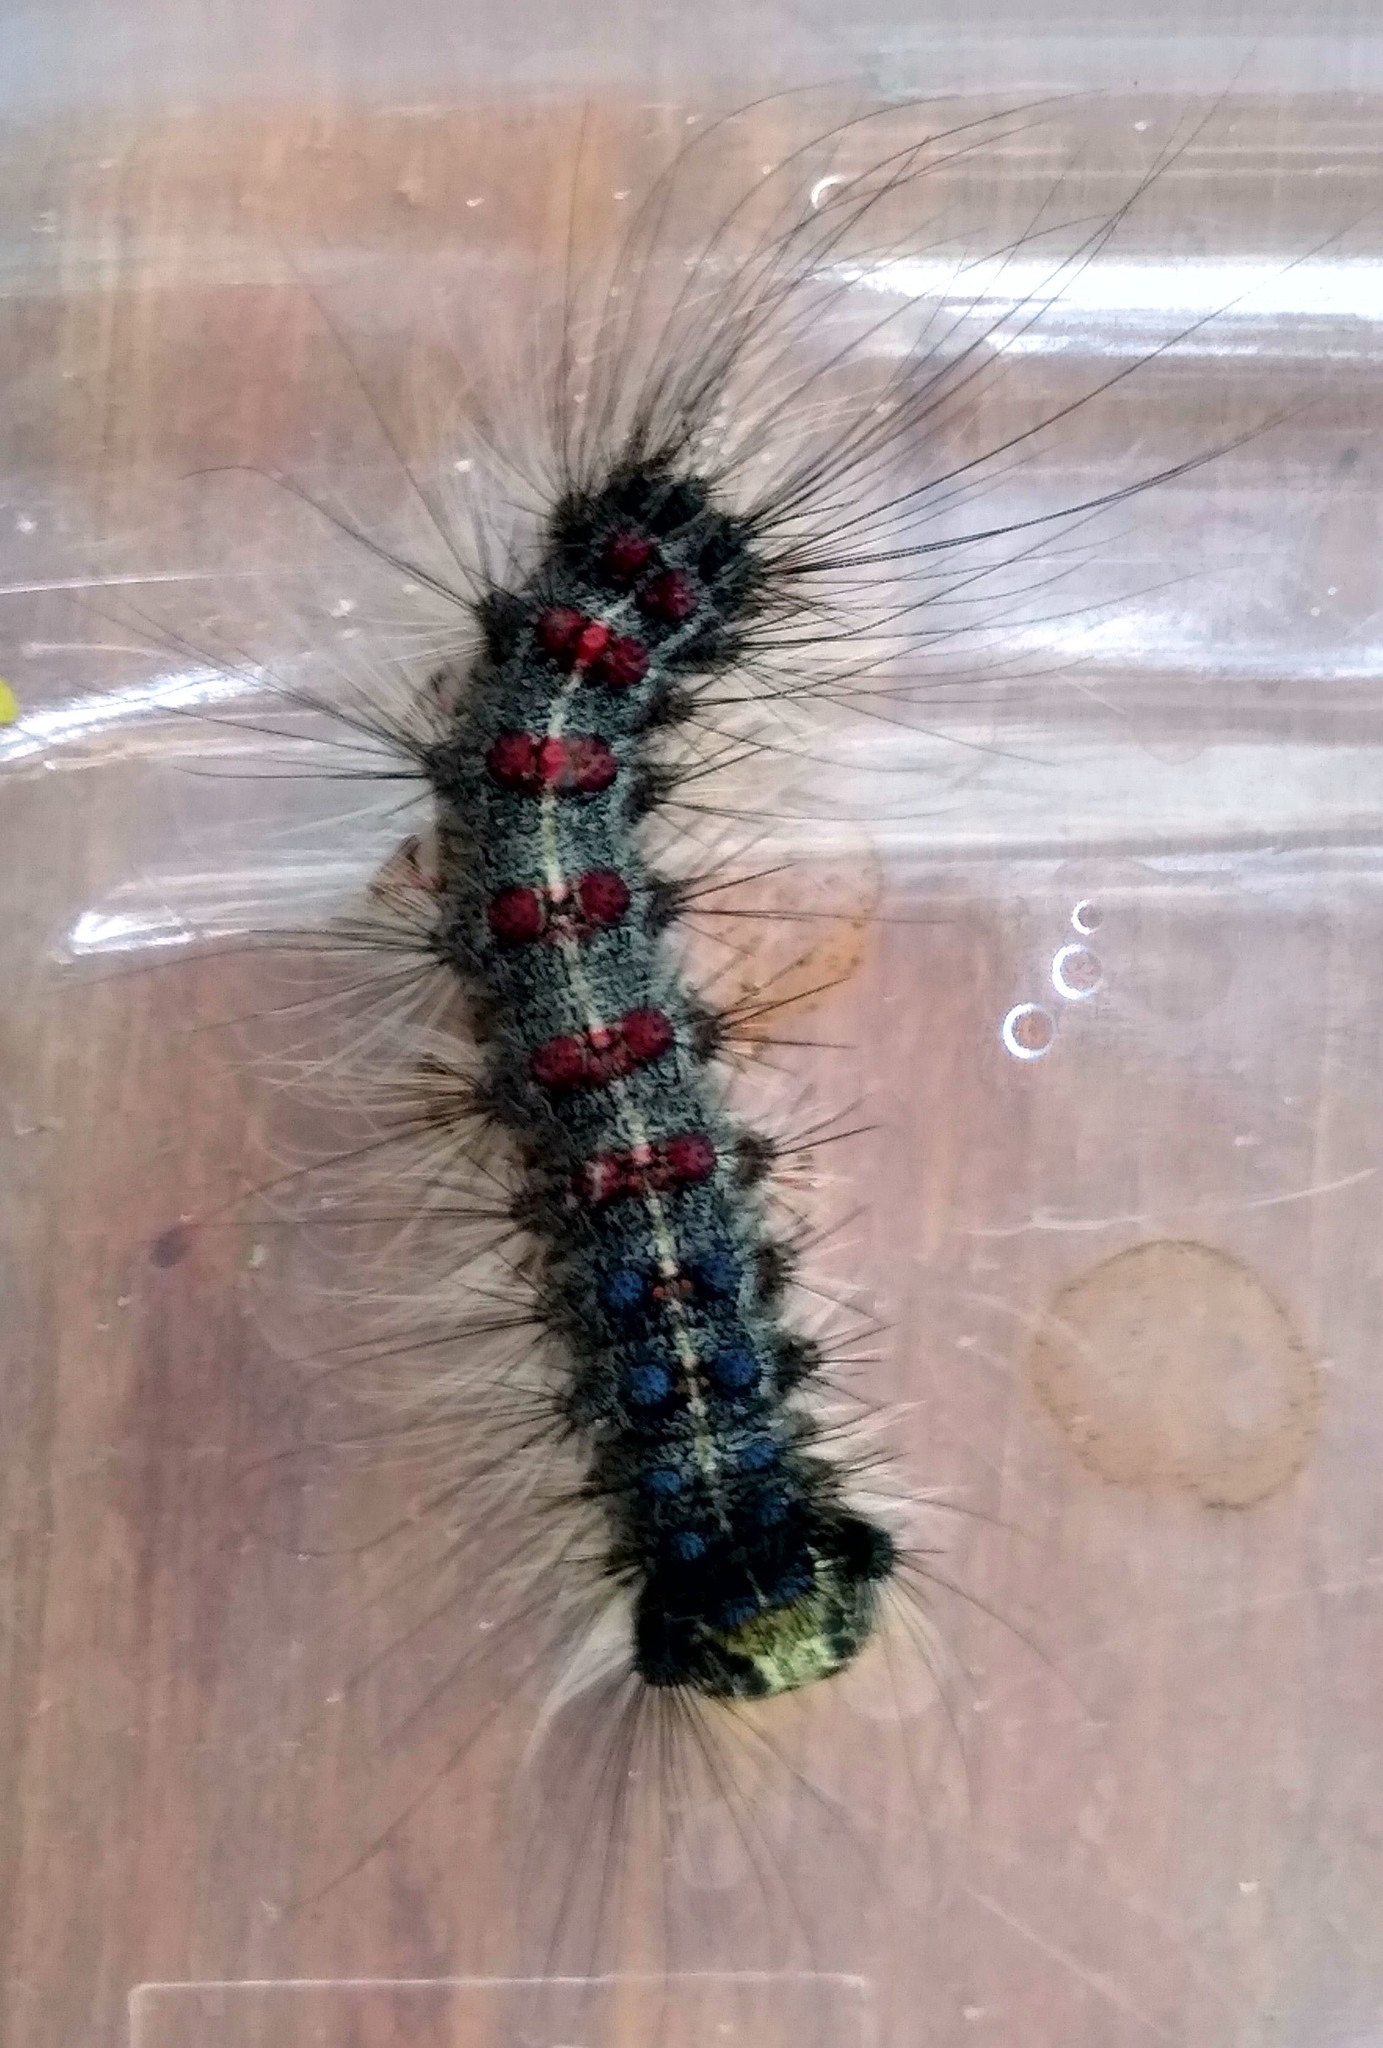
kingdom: Animalia
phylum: Arthropoda
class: Insecta
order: Lepidoptera
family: Erebidae
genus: Lymantria
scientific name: Lymantria dispar
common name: Gypsy moth
